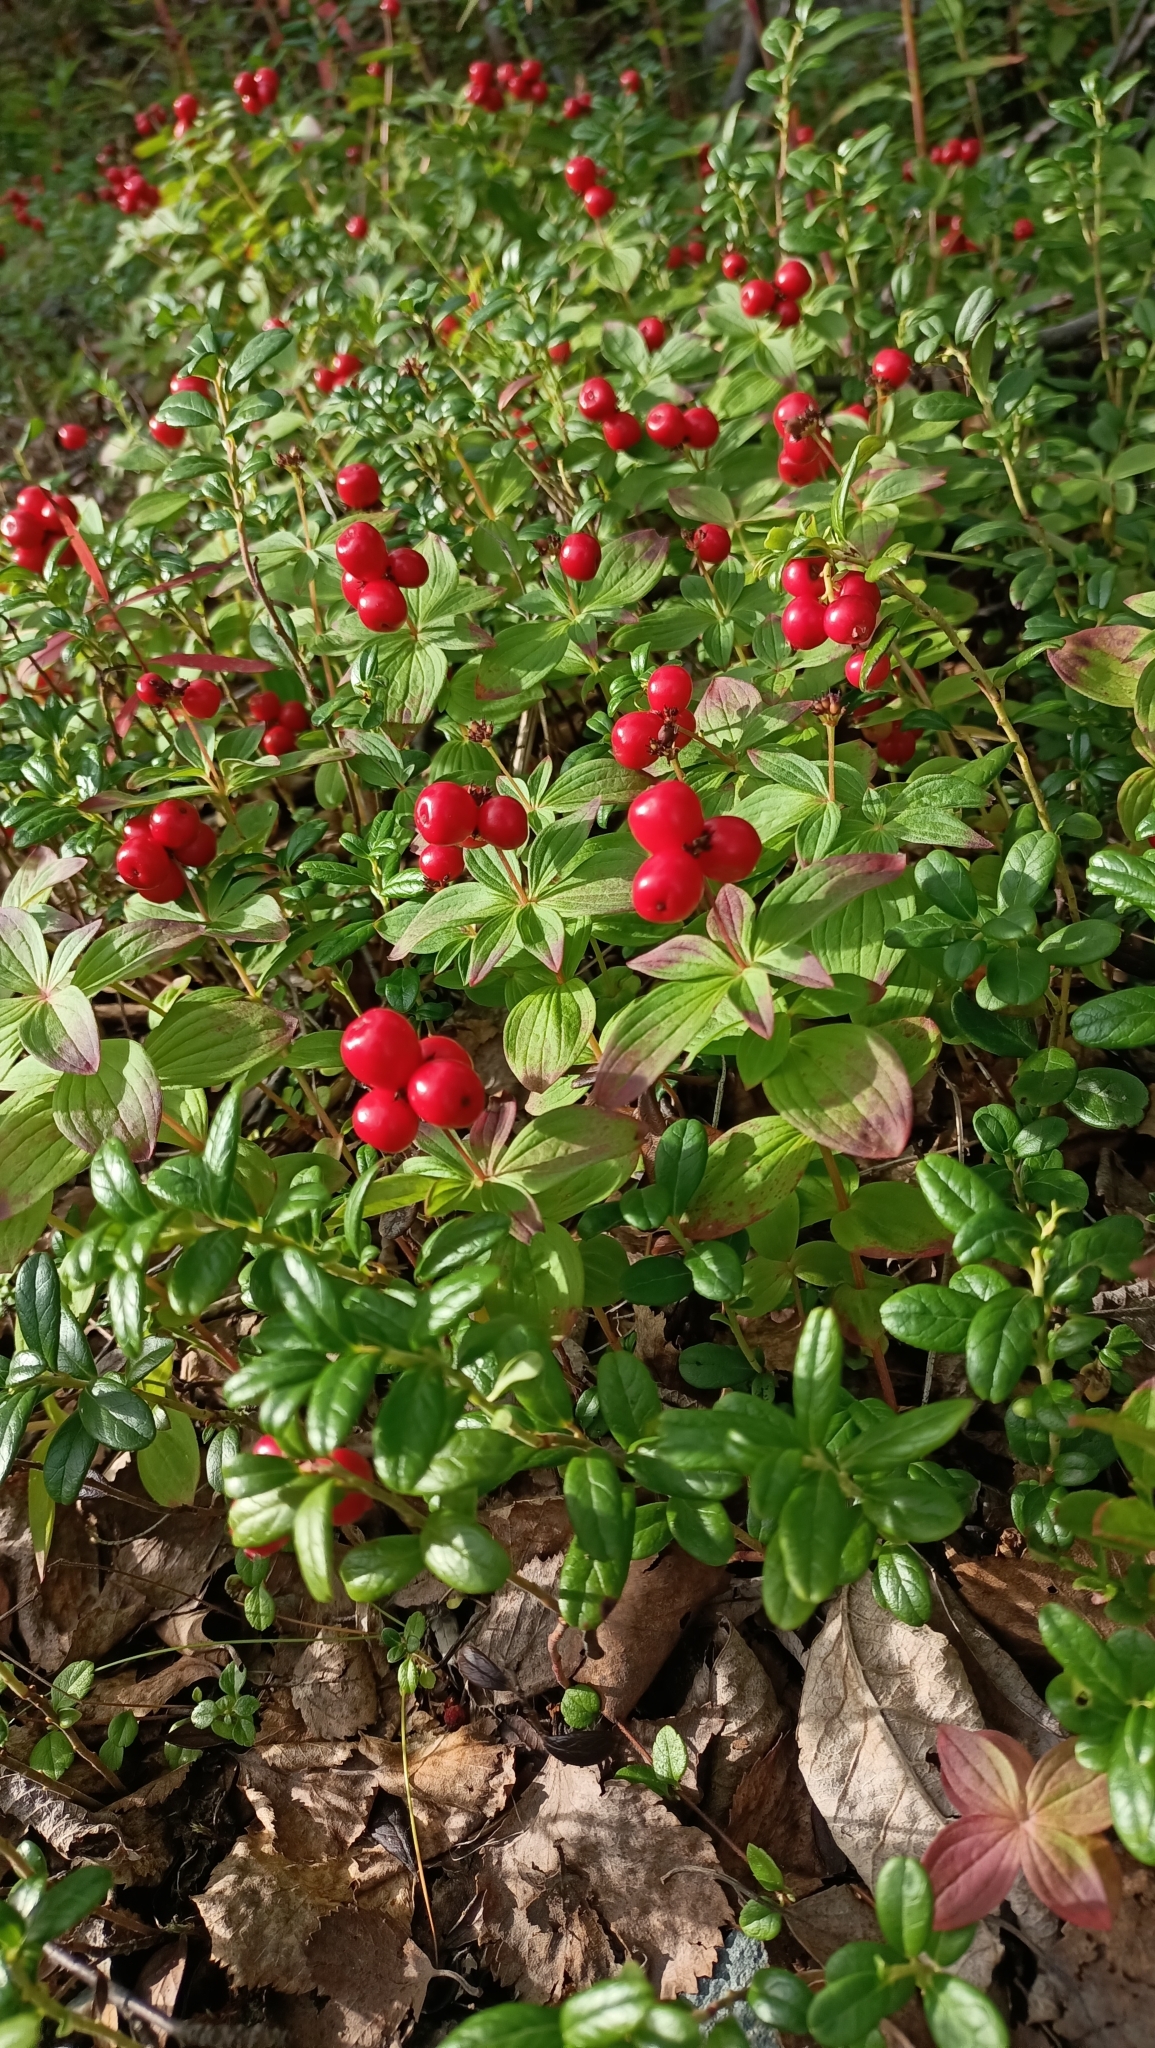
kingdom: Plantae
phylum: Tracheophyta
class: Magnoliopsida
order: Cornales
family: Cornaceae
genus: Cornus
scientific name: Cornus suecica
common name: Dwarf cornel
